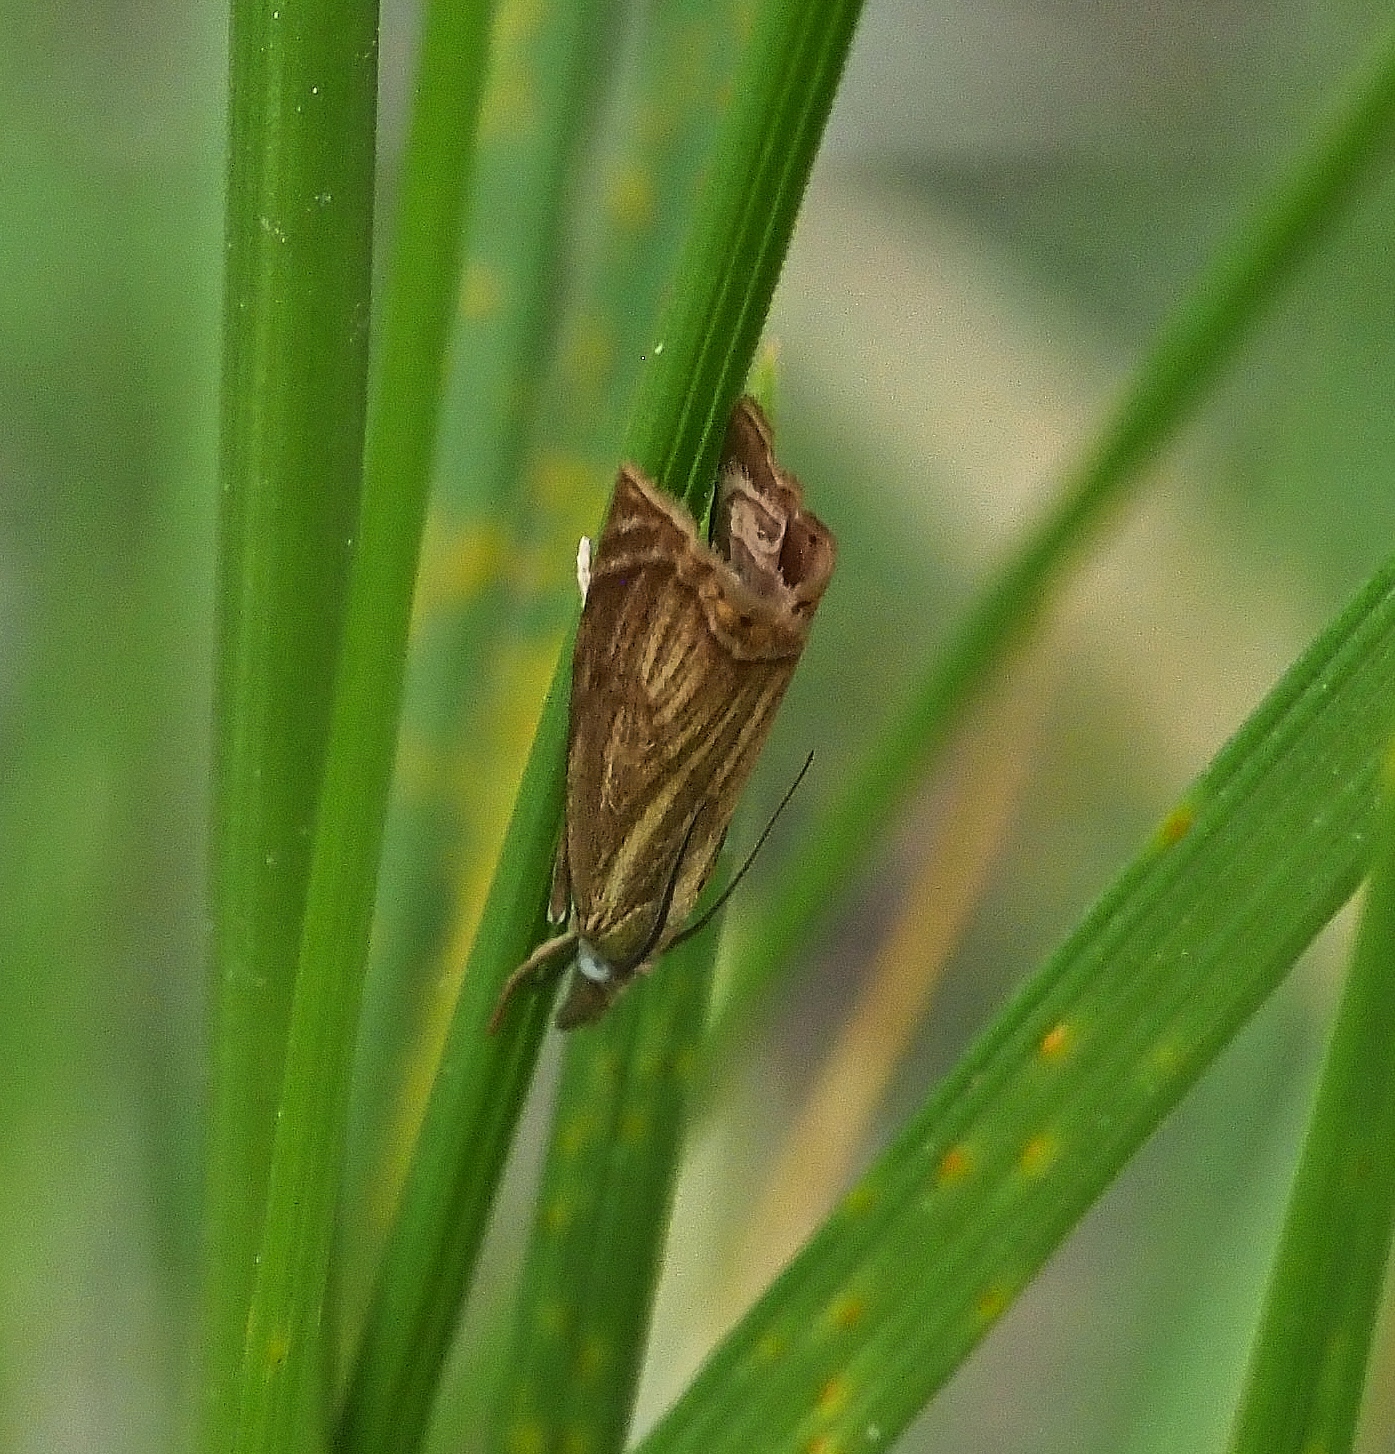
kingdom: Animalia
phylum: Arthropoda
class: Insecta
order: Lepidoptera
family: Crambidae
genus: Chrysoteuchia
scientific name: Chrysoteuchia culmella
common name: Garden grass-veneer
